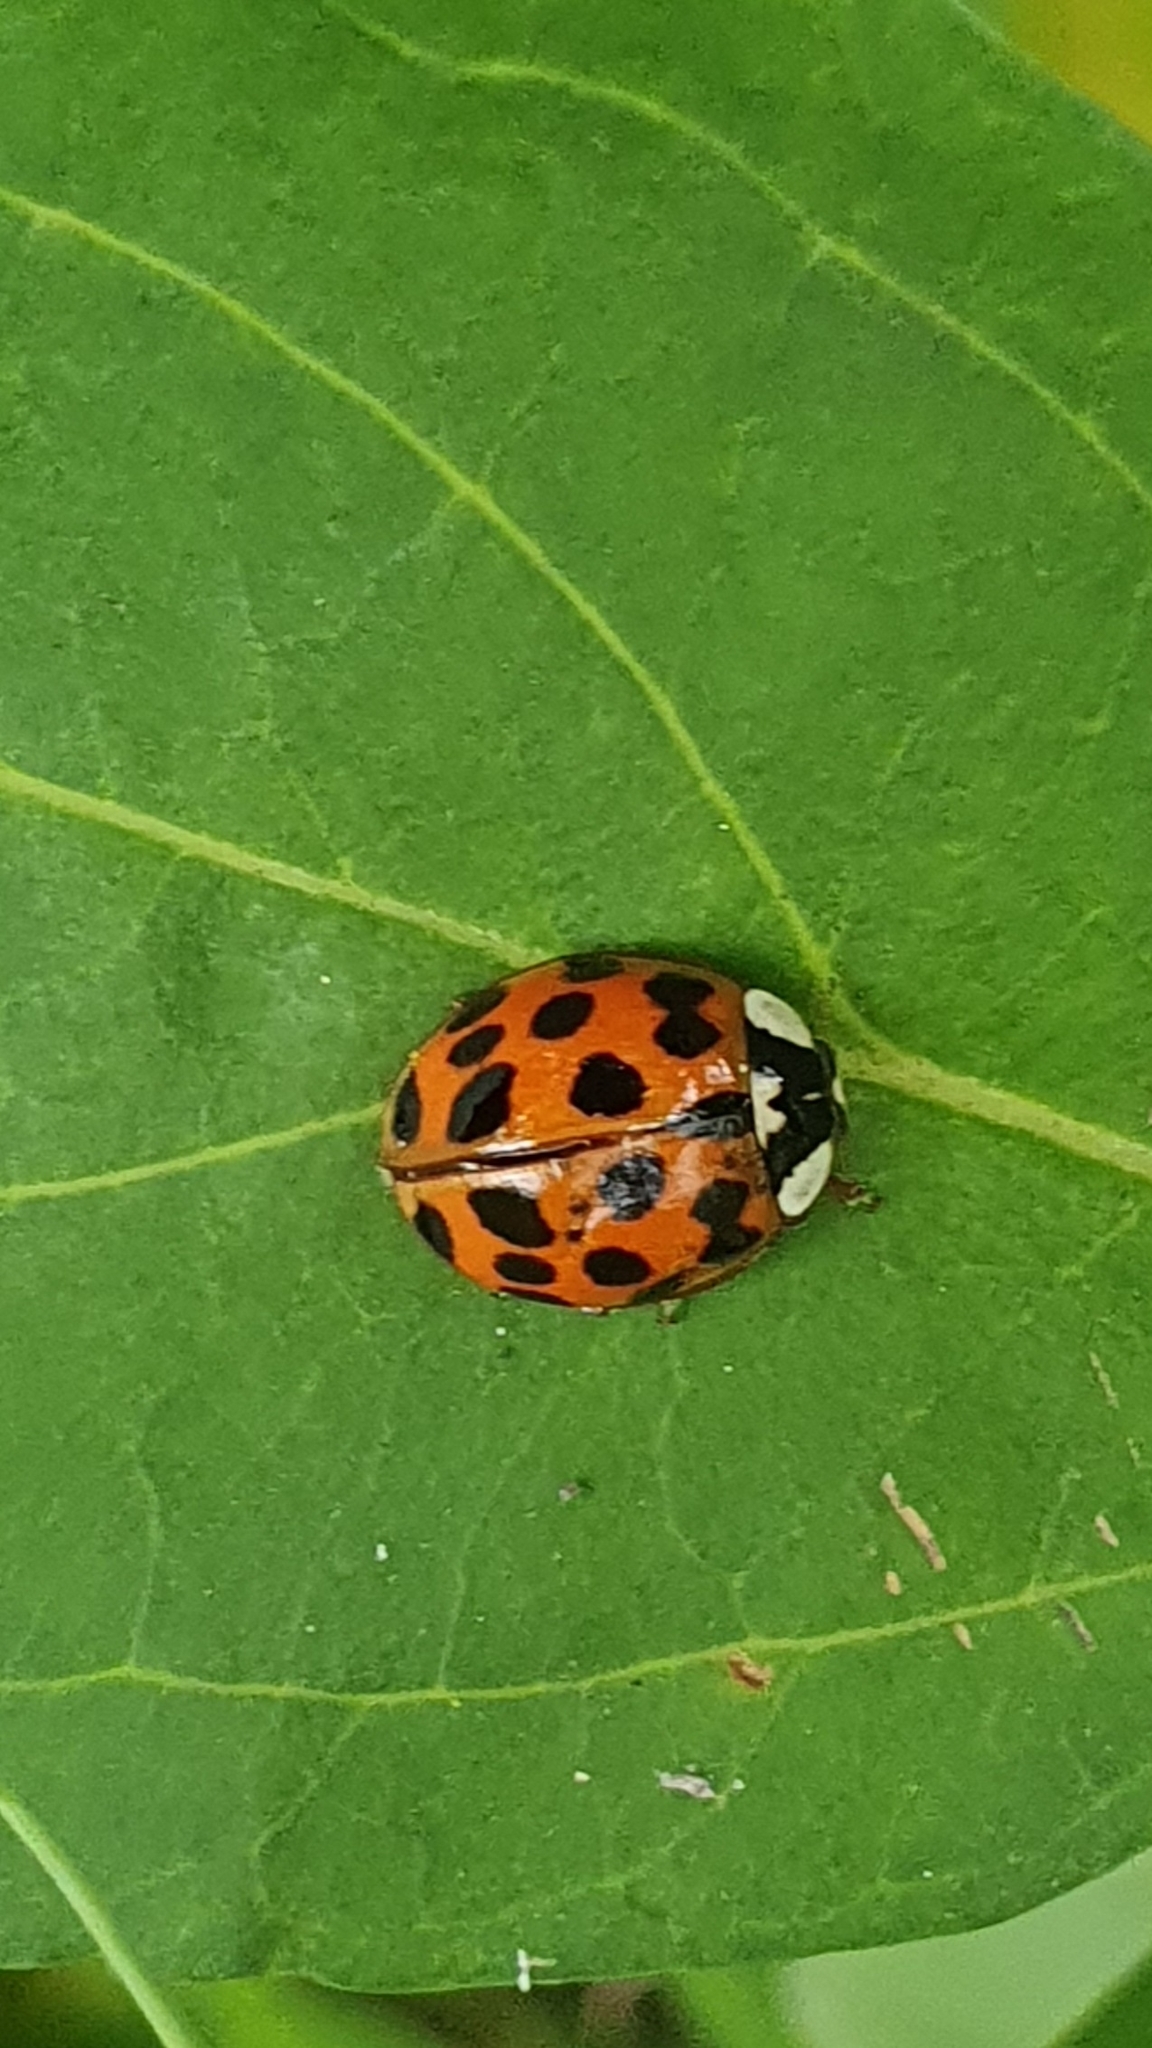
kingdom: Animalia
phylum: Arthropoda
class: Insecta
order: Coleoptera
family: Coccinellidae
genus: Harmonia
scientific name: Harmonia axyridis
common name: Harlequin ladybird
